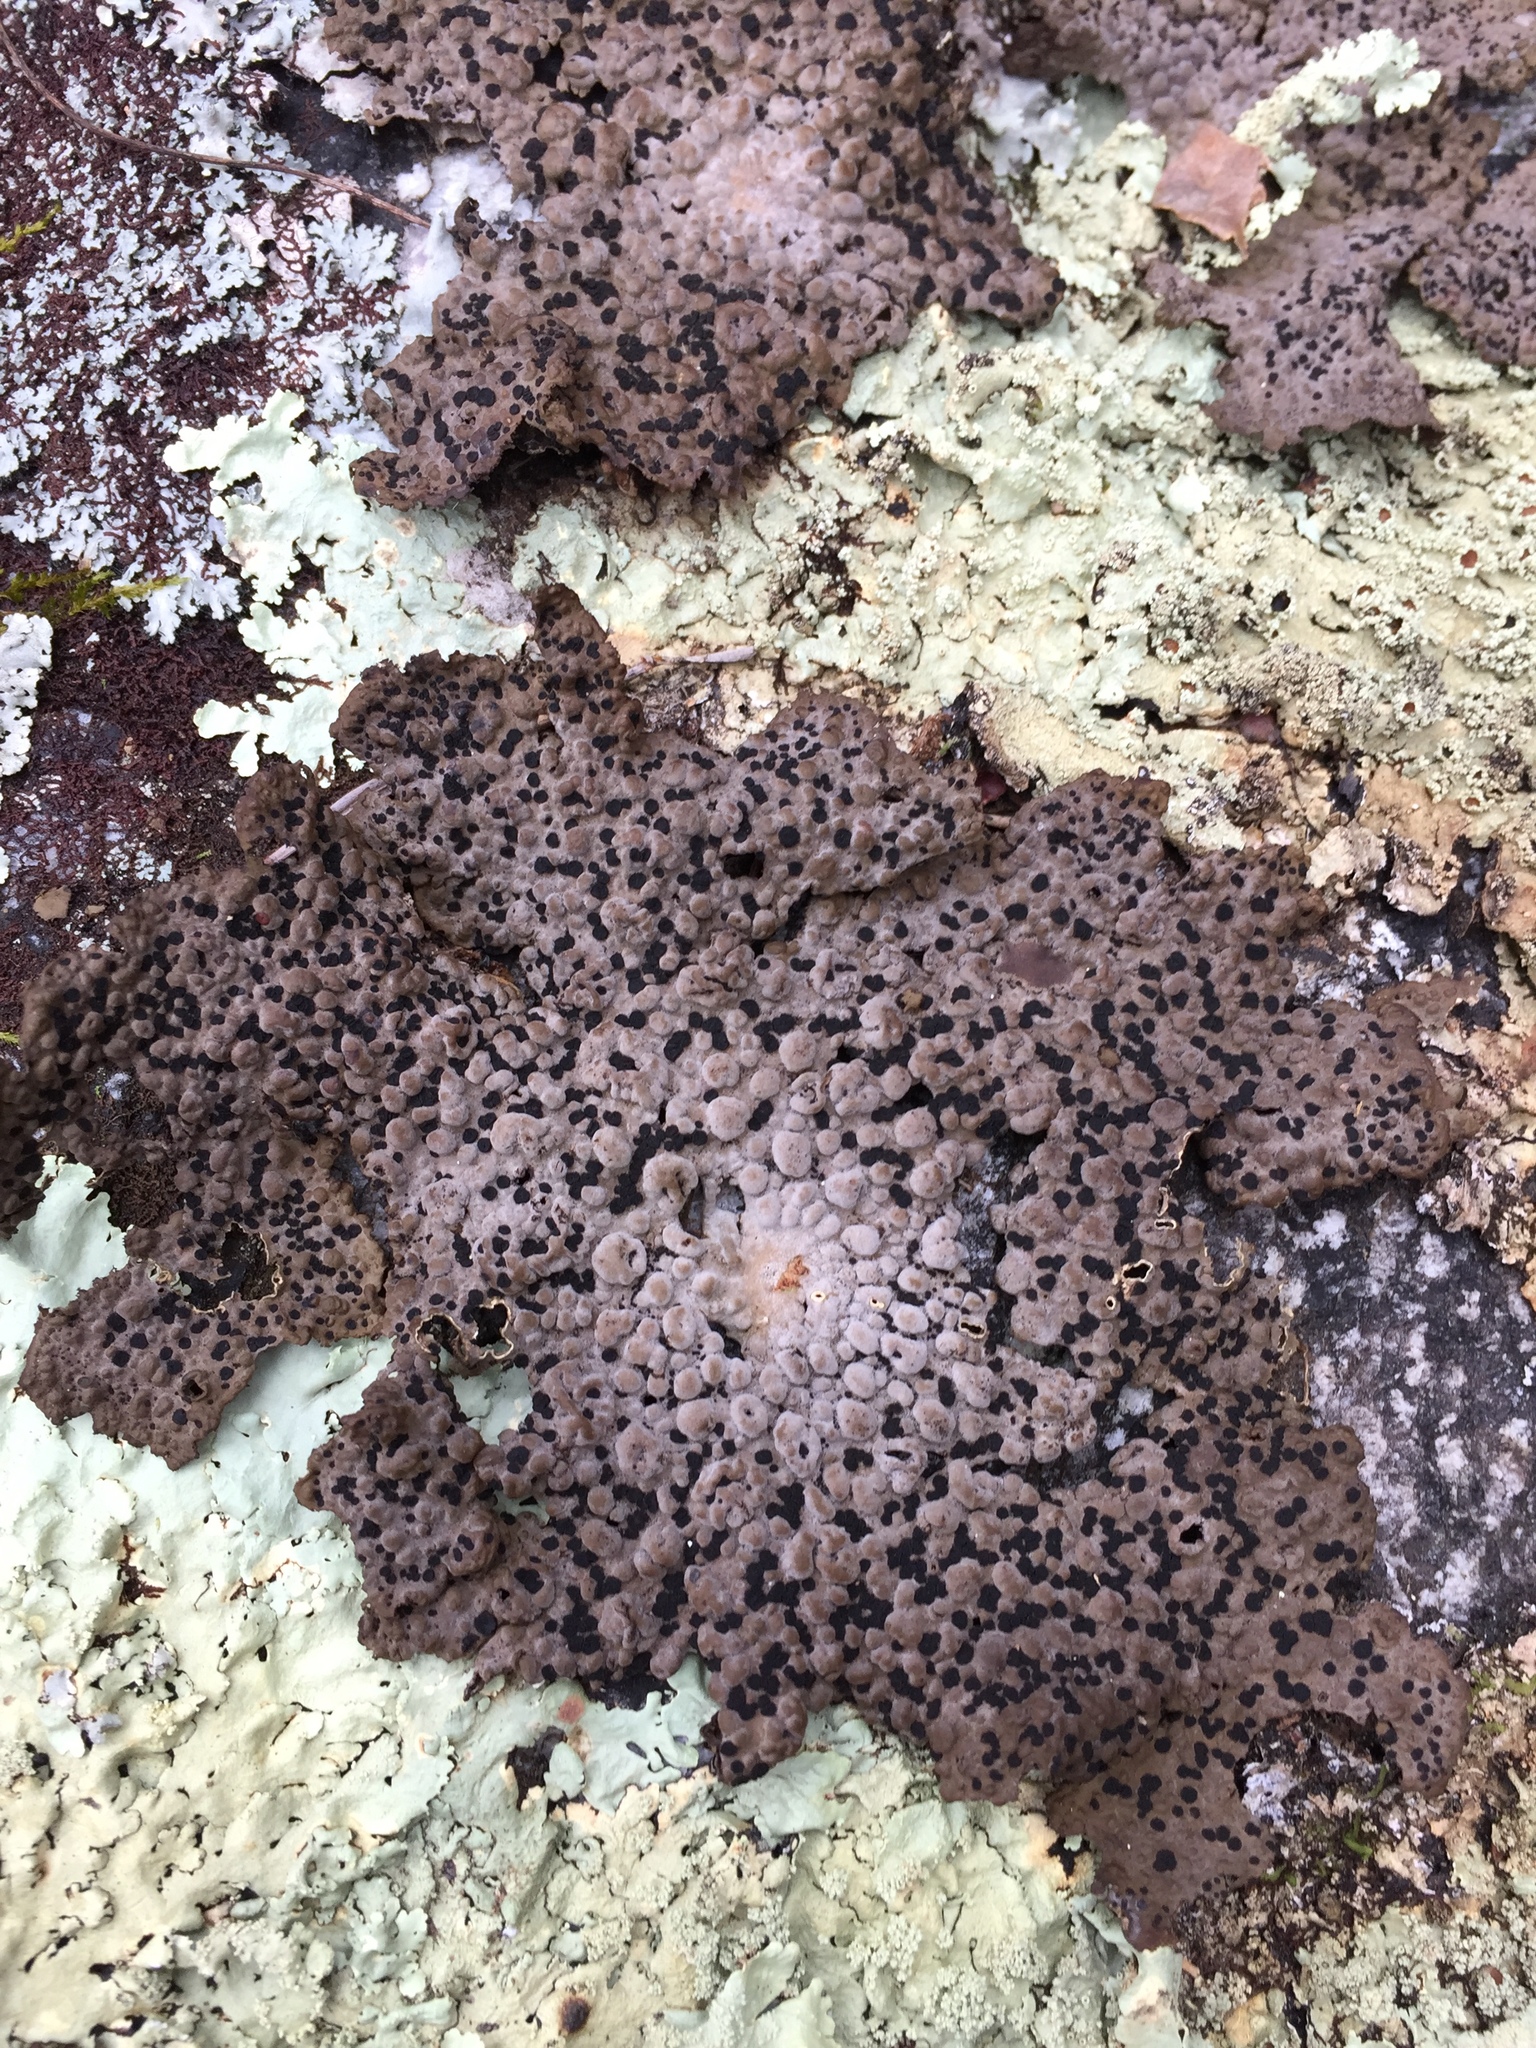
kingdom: Fungi
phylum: Ascomycota
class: Lecanoromycetes
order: Umbilicariales
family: Umbilicariaceae
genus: Lasallia
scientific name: Lasallia papulosa
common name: Common toadskin lichen
